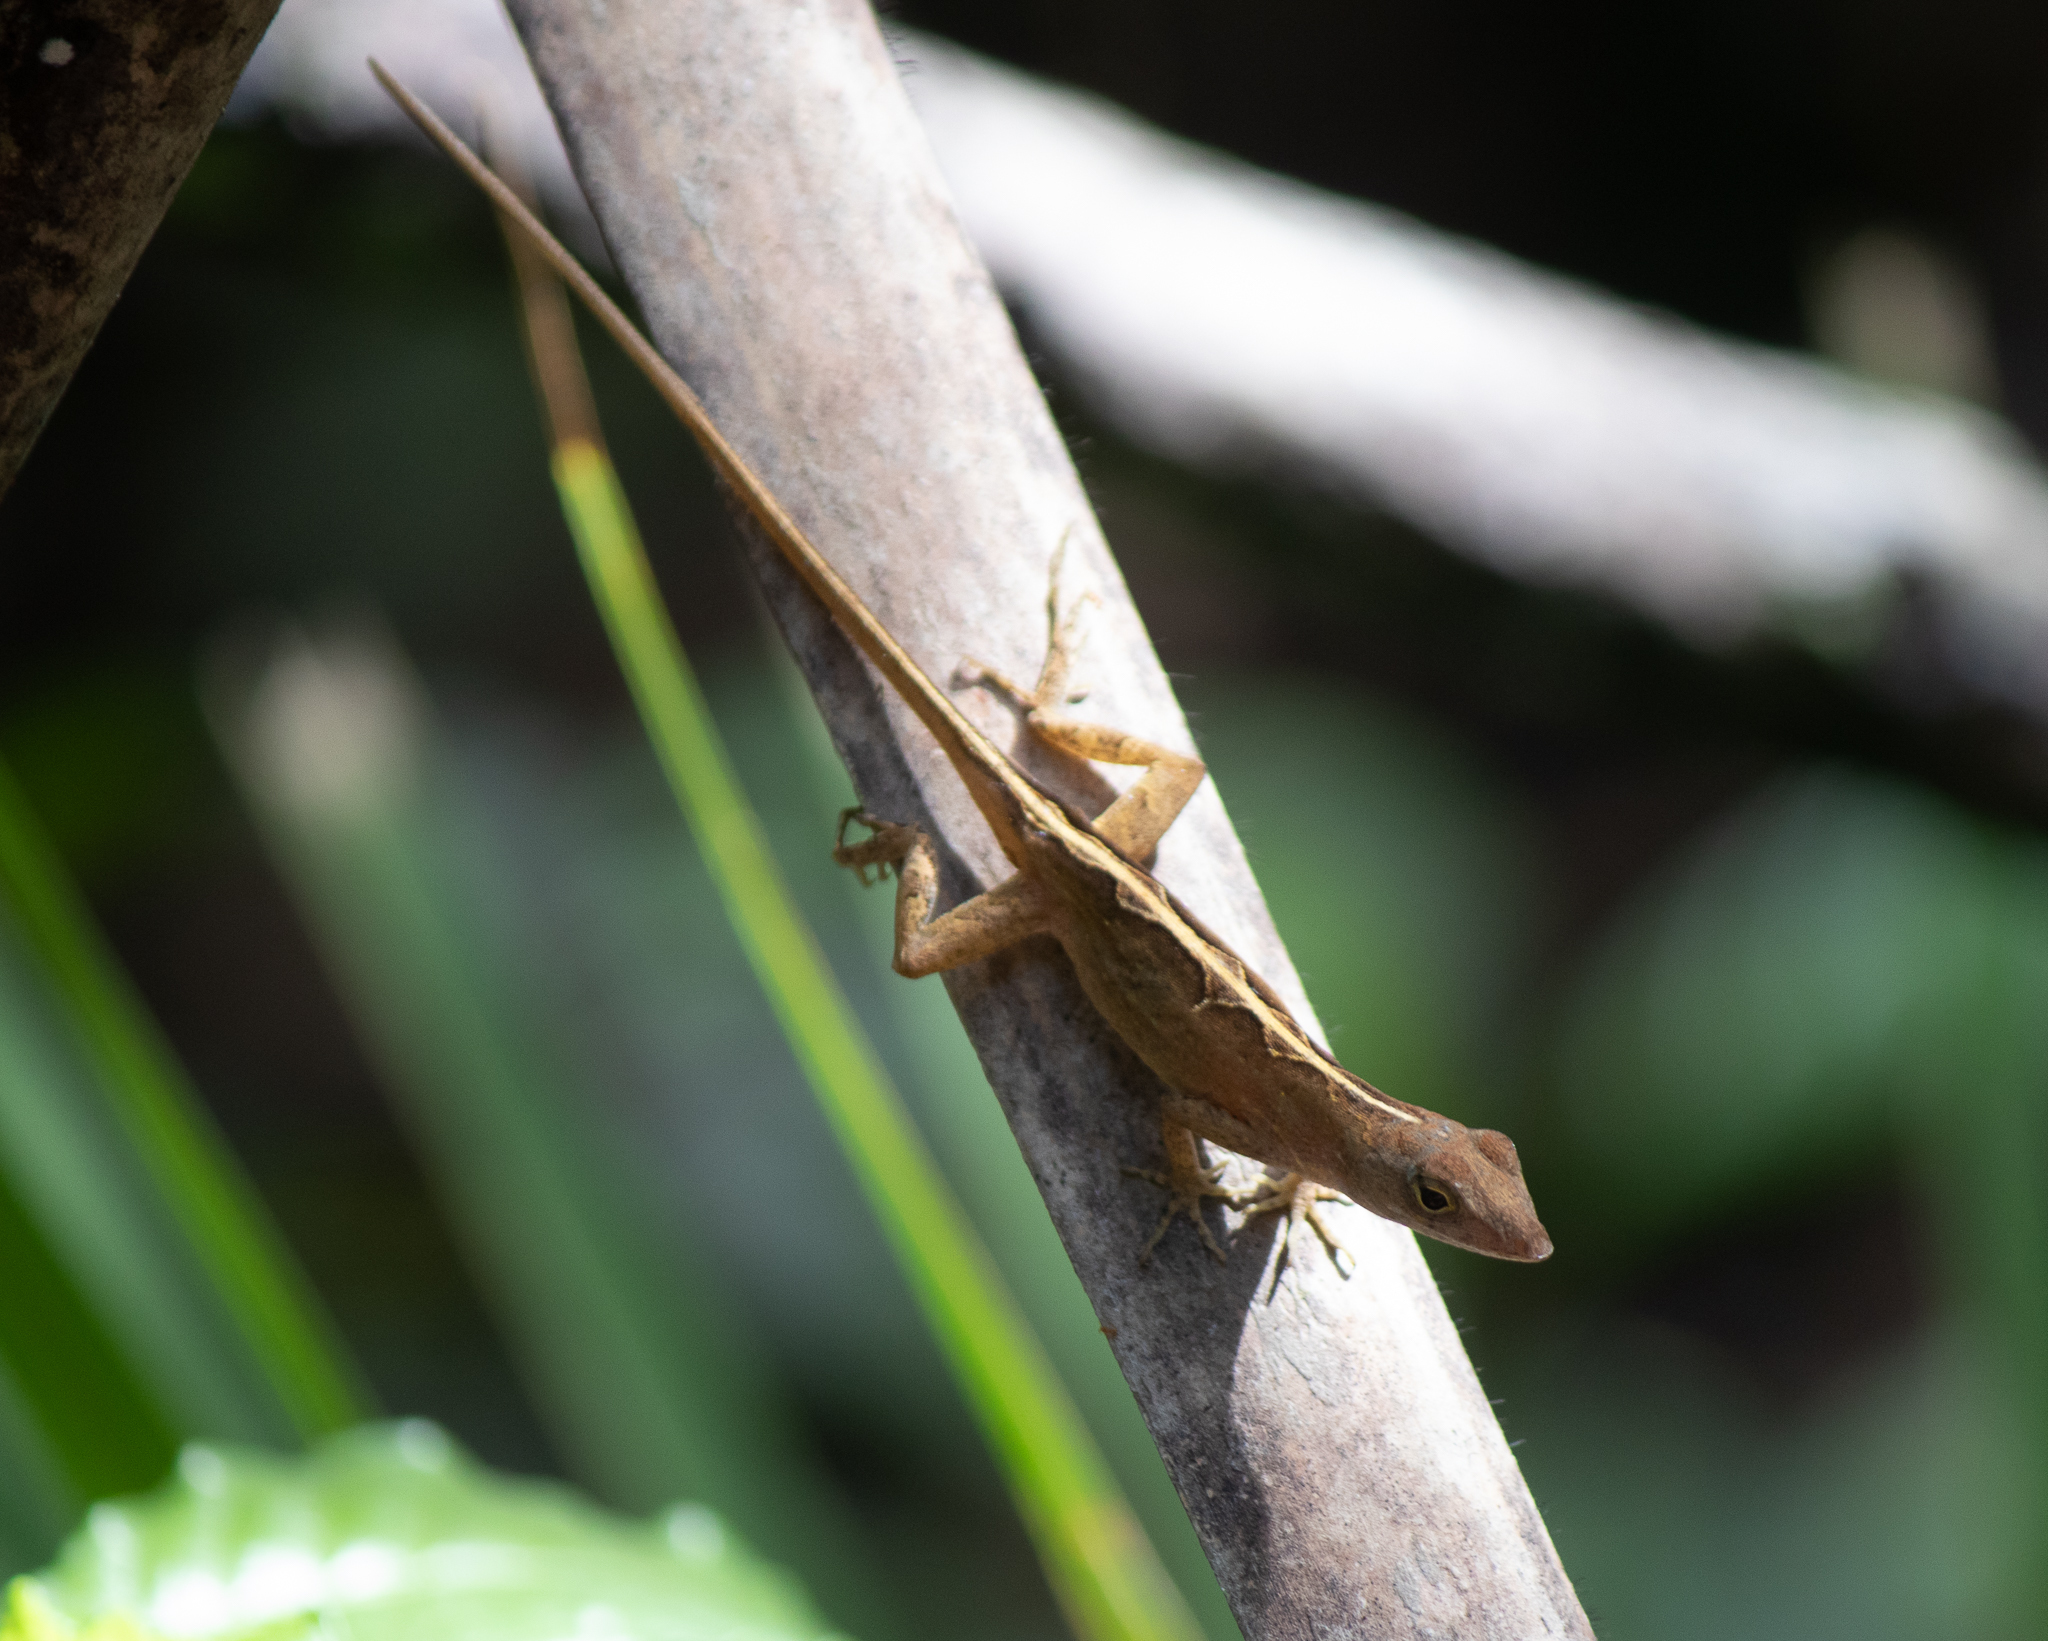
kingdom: Animalia
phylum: Chordata
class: Squamata
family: Dactyloidae
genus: Anolis
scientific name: Anolis sagrei
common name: Brown anole
